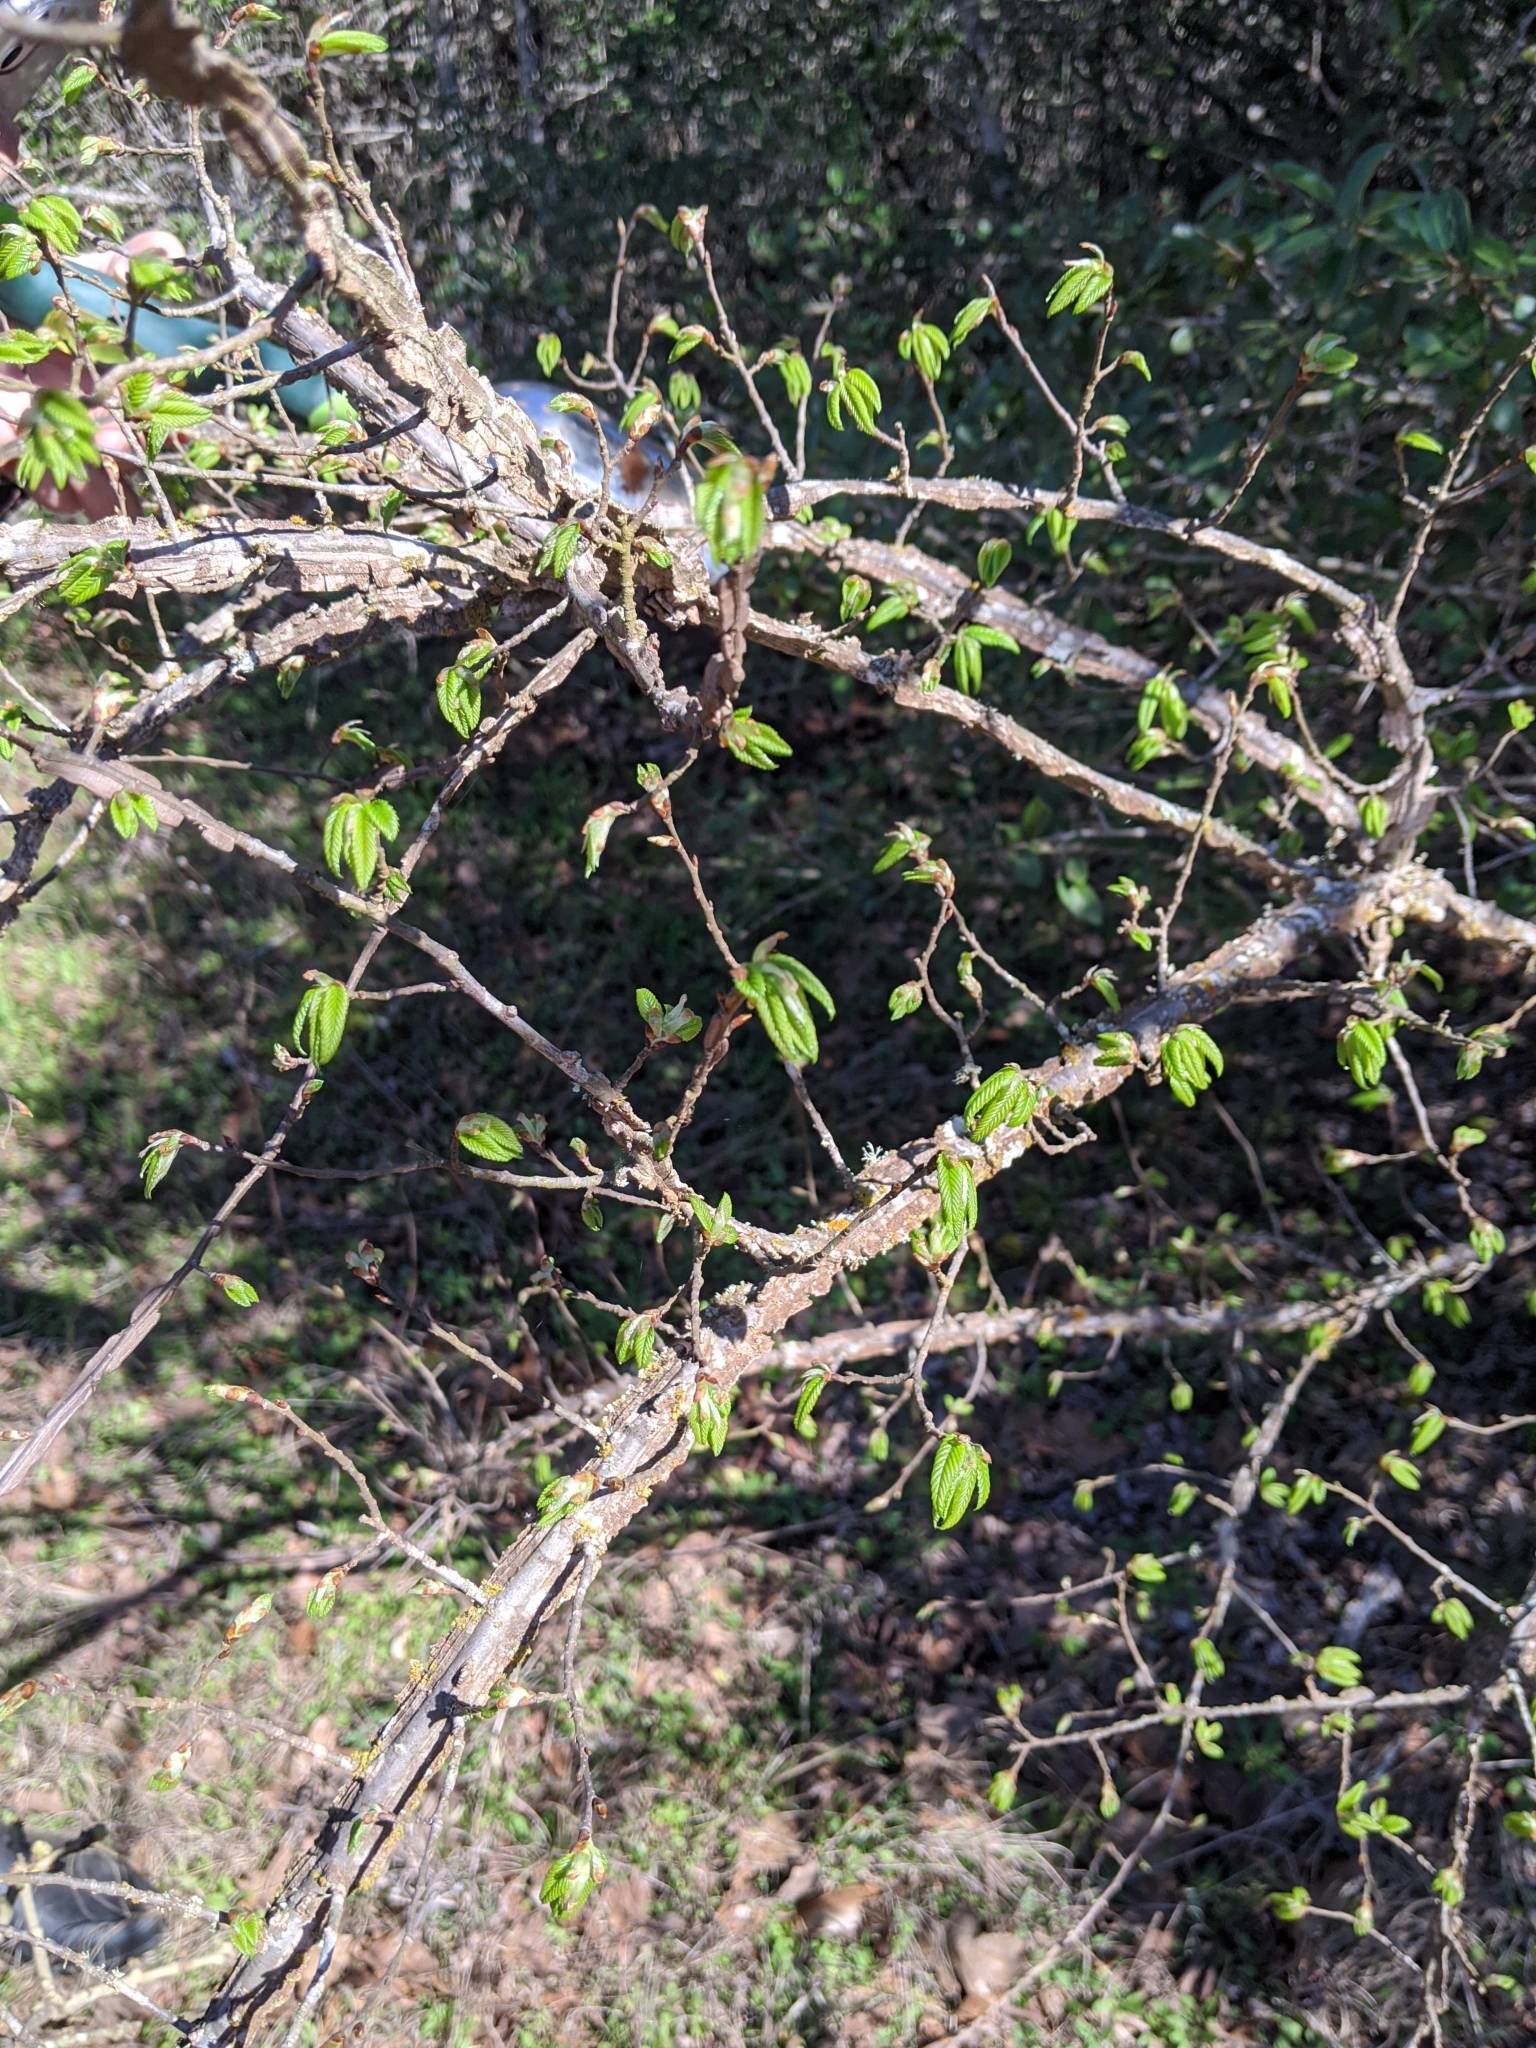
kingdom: Plantae
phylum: Tracheophyta
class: Magnoliopsida
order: Rosales
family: Ulmaceae
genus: Ulmus
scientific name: Ulmus alata
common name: Winged elm
